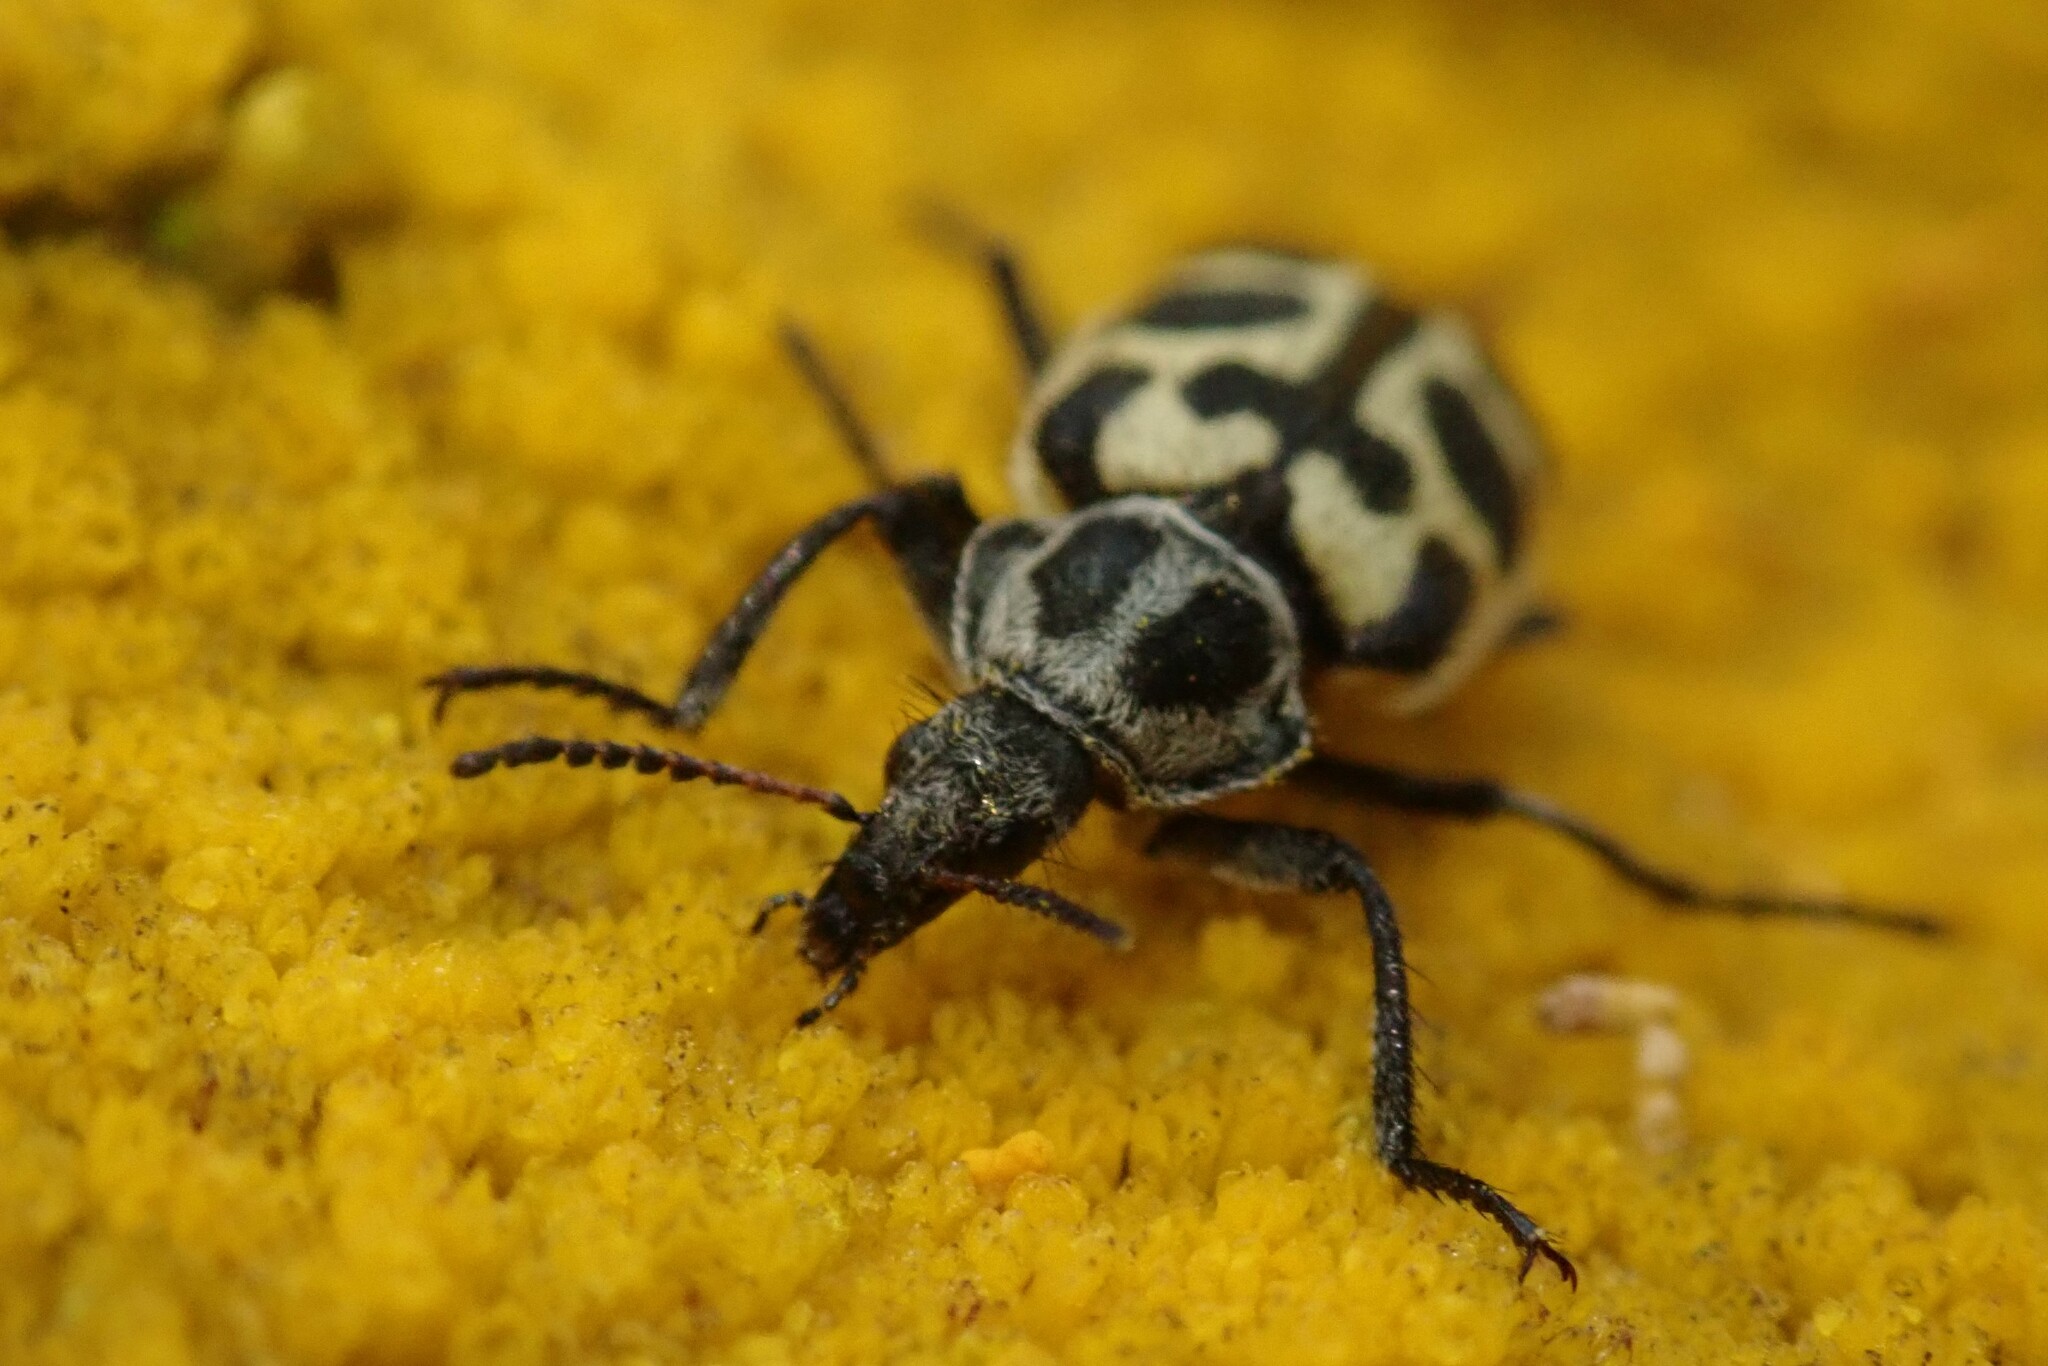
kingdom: Animalia
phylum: Arthropoda
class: Insecta
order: Coleoptera
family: Melyridae
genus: Astylus
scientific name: Astylus atromaculatus
